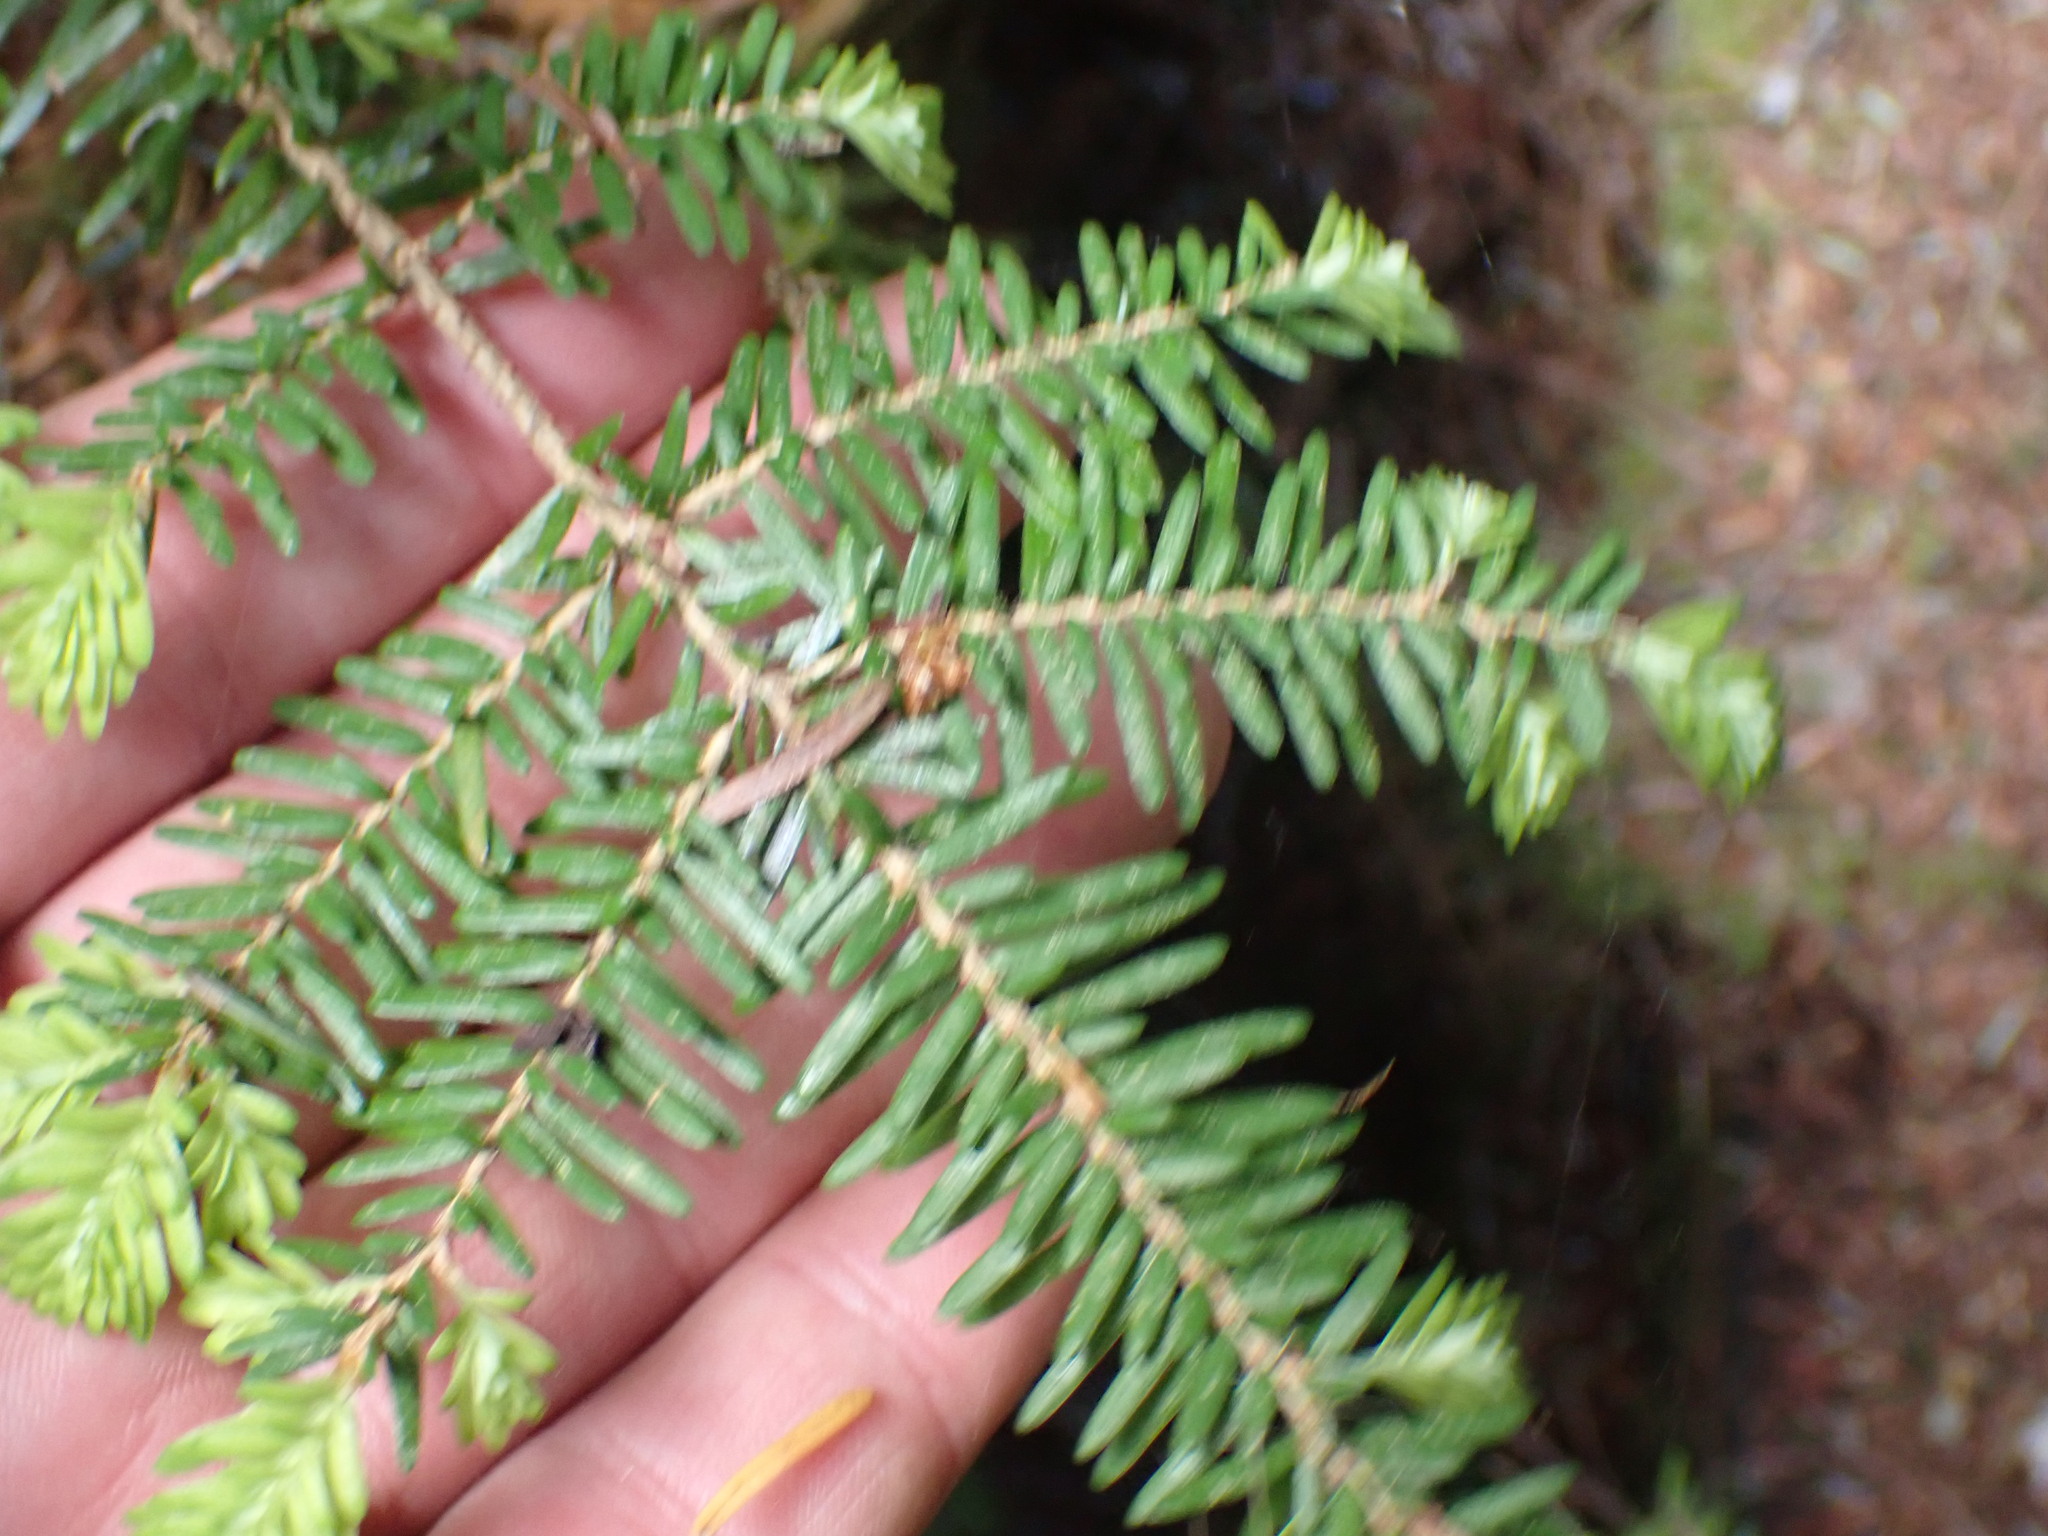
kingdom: Plantae
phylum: Tracheophyta
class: Pinopsida
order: Pinales
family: Pinaceae
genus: Tsuga
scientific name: Tsuga heterophylla
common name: Western hemlock
